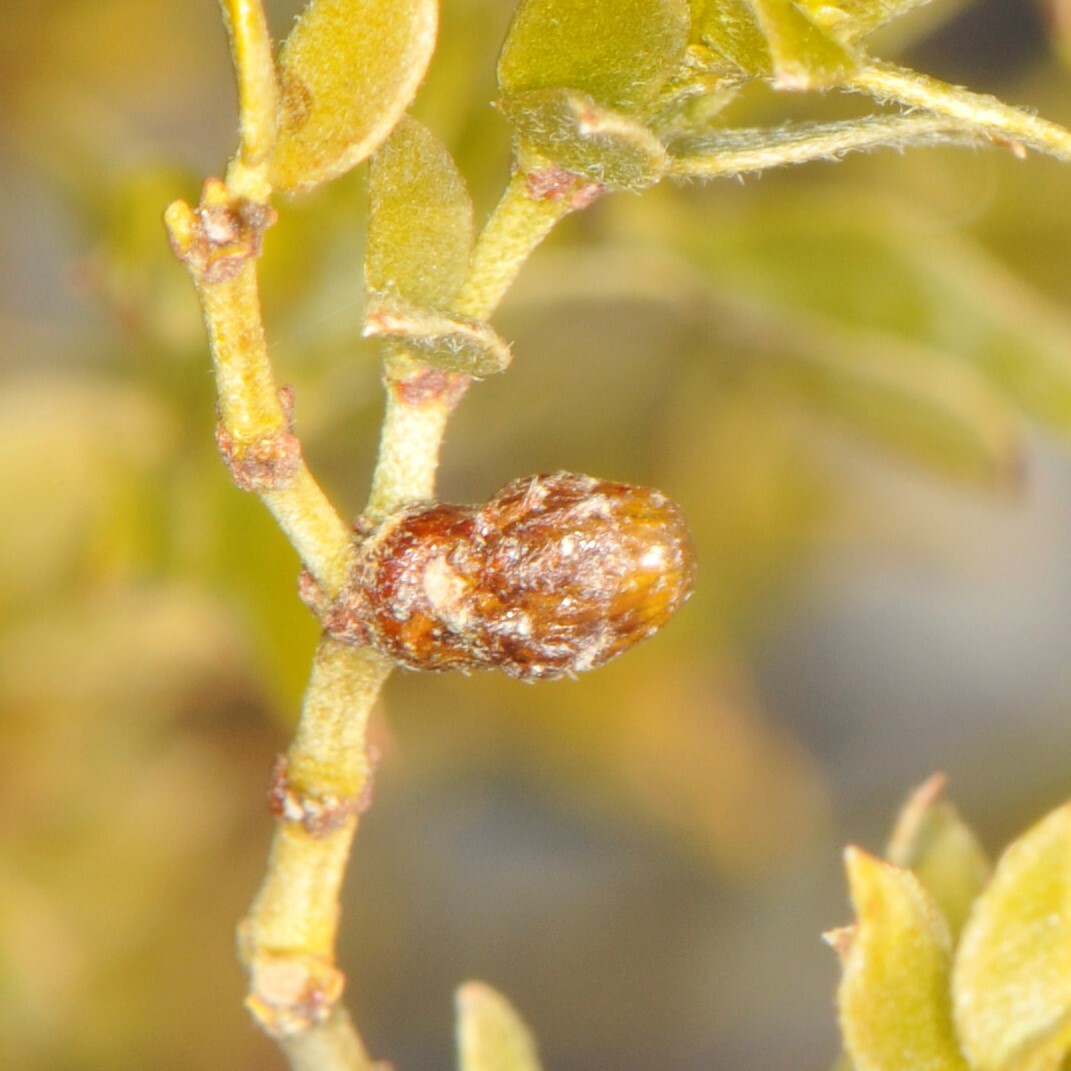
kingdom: Animalia
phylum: Arthropoda
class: Insecta
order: Diptera
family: Cecidomyiidae
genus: Asphondylia
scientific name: Asphondylia resinosa
